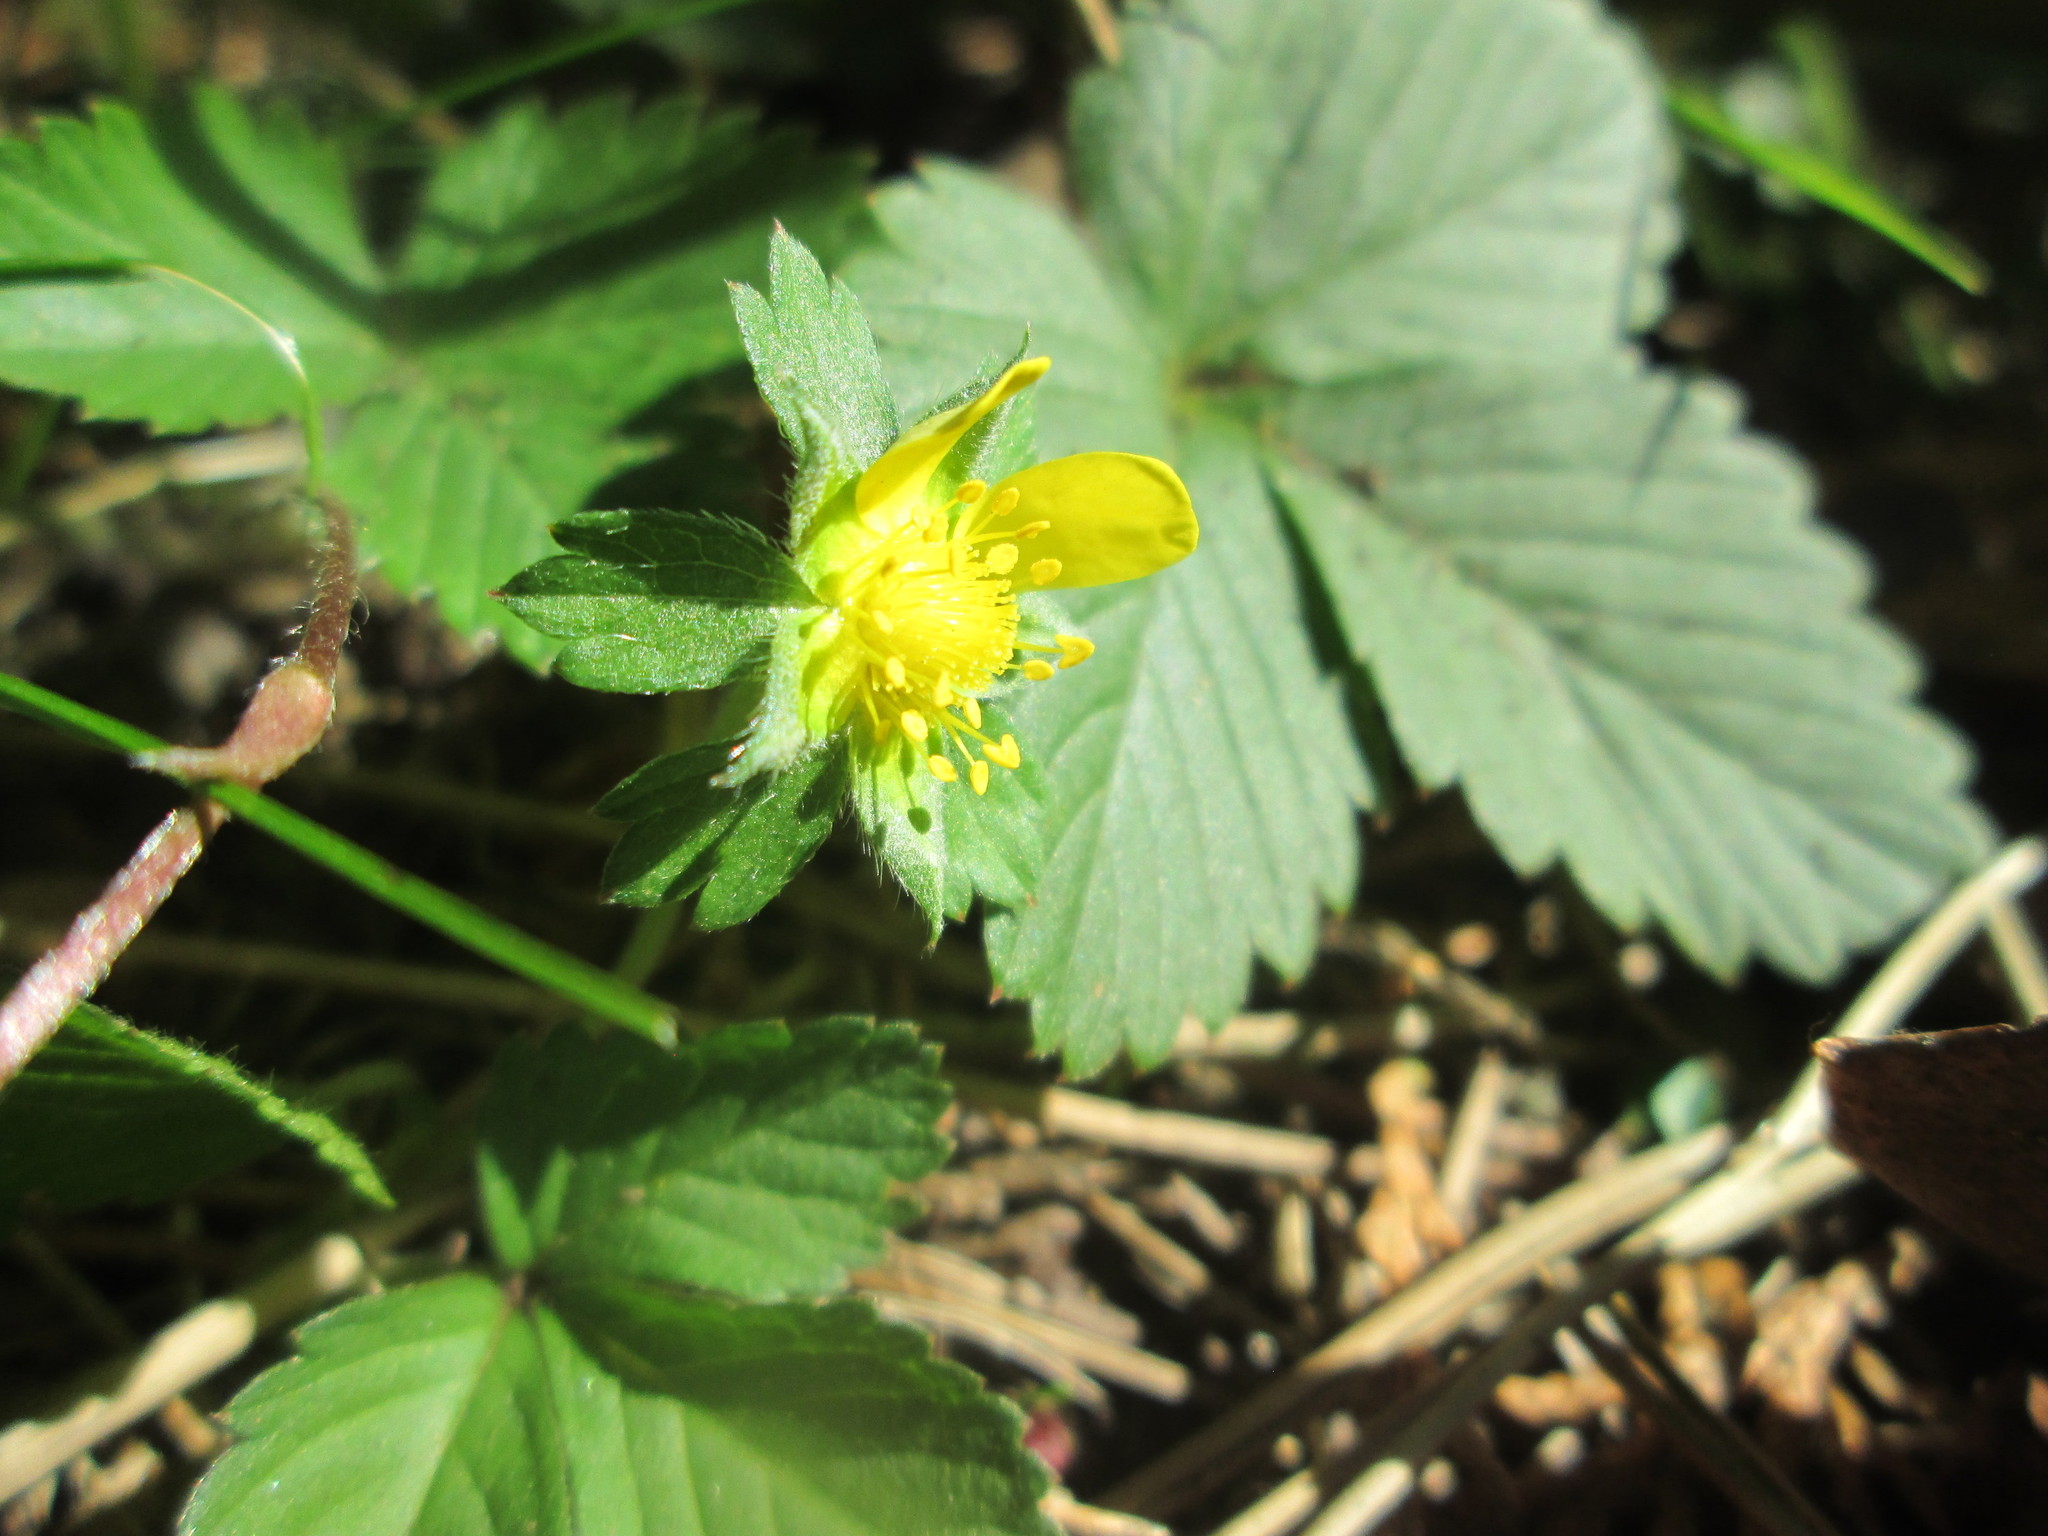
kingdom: Plantae
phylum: Tracheophyta
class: Magnoliopsida
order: Rosales
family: Rosaceae
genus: Potentilla
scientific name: Potentilla indica
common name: Yellow-flowered strawberry
